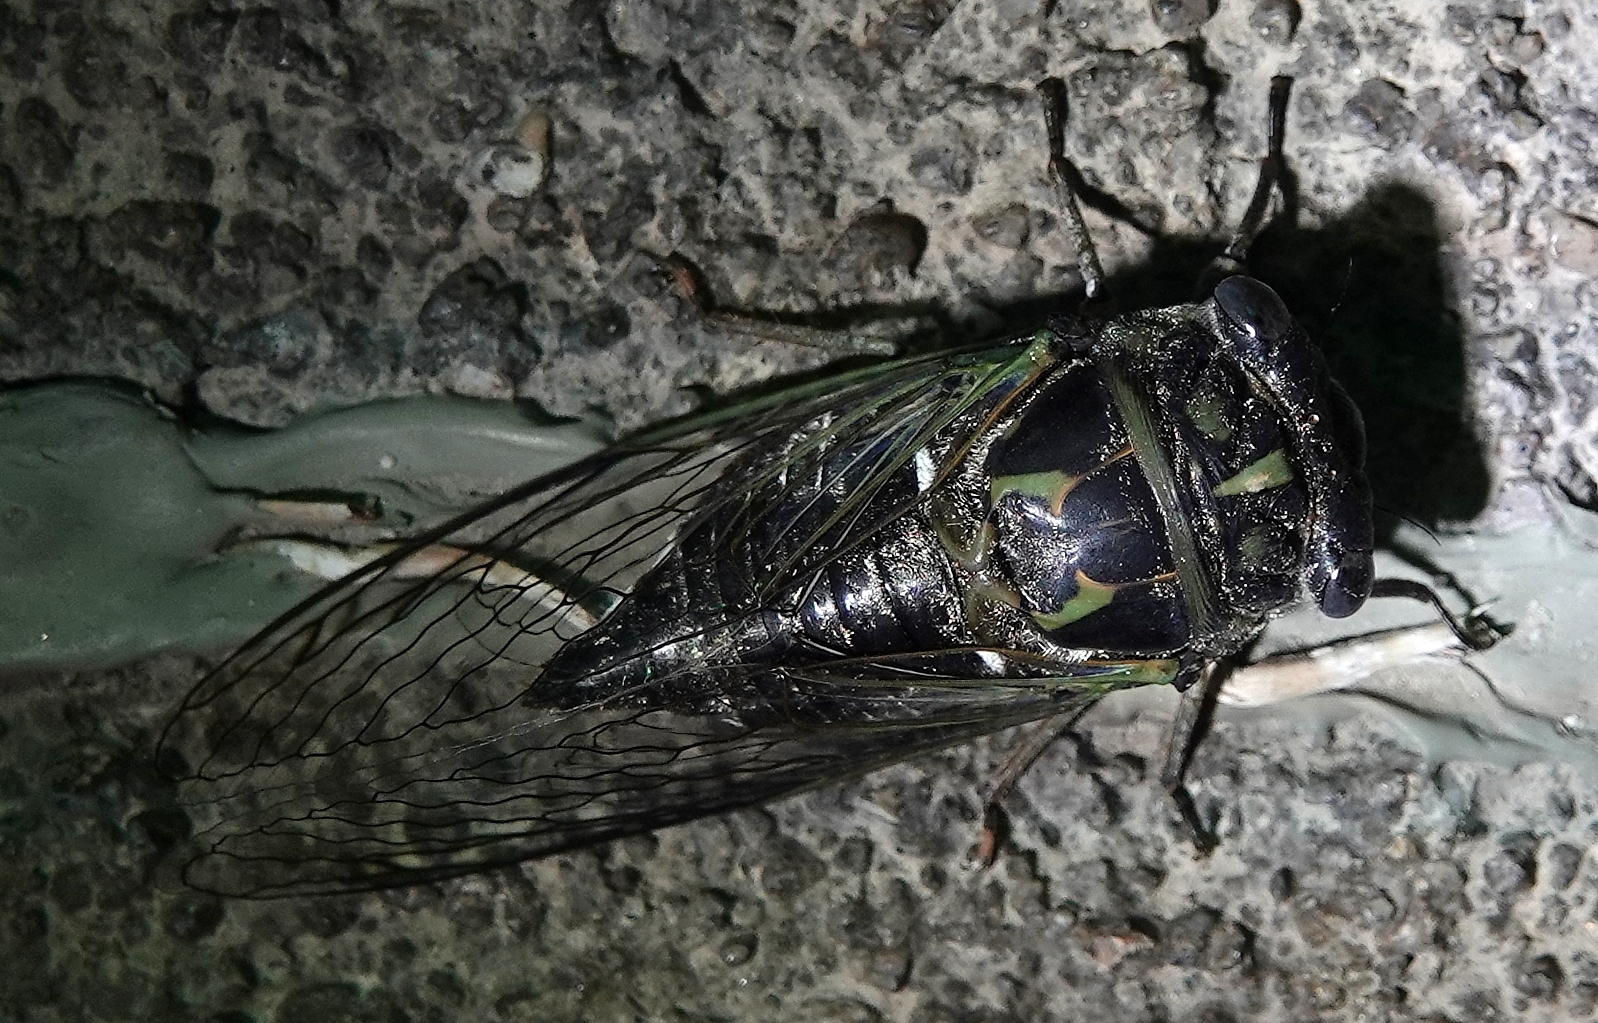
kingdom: Animalia
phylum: Arthropoda
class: Insecta
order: Hemiptera
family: Cicadidae
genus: Neotibicen
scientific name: Neotibicen canicularis
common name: God-day cicada
